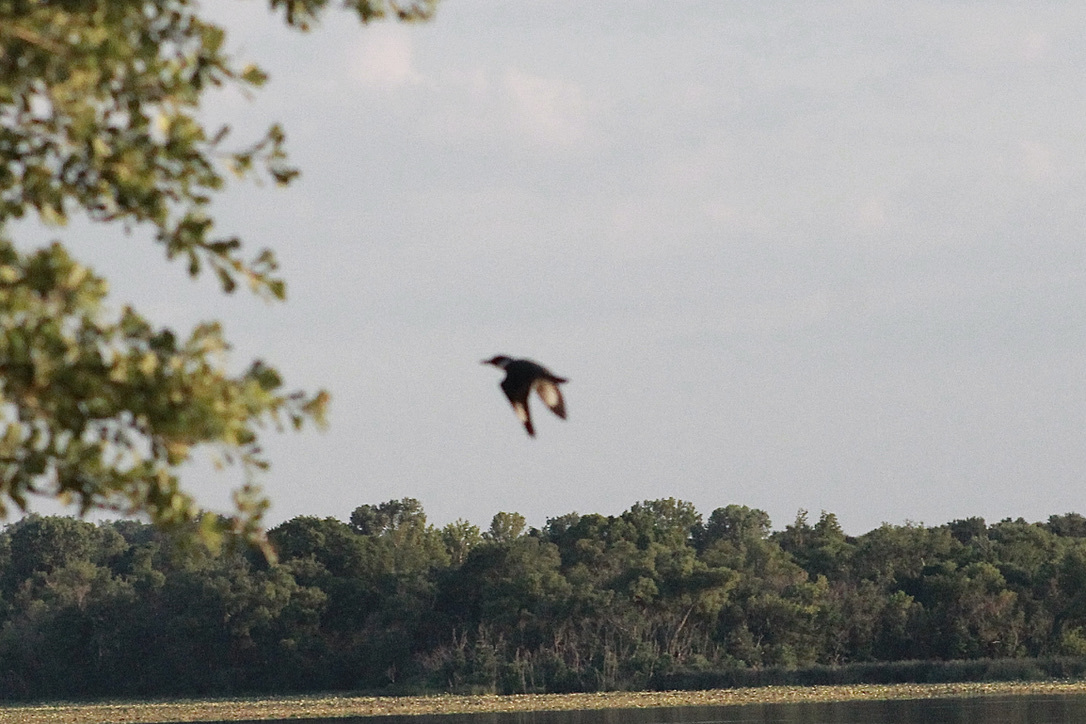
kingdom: Animalia
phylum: Chordata
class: Aves
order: Coraciiformes
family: Alcedinidae
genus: Megaceryle
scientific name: Megaceryle alcyon
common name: Belted kingfisher
